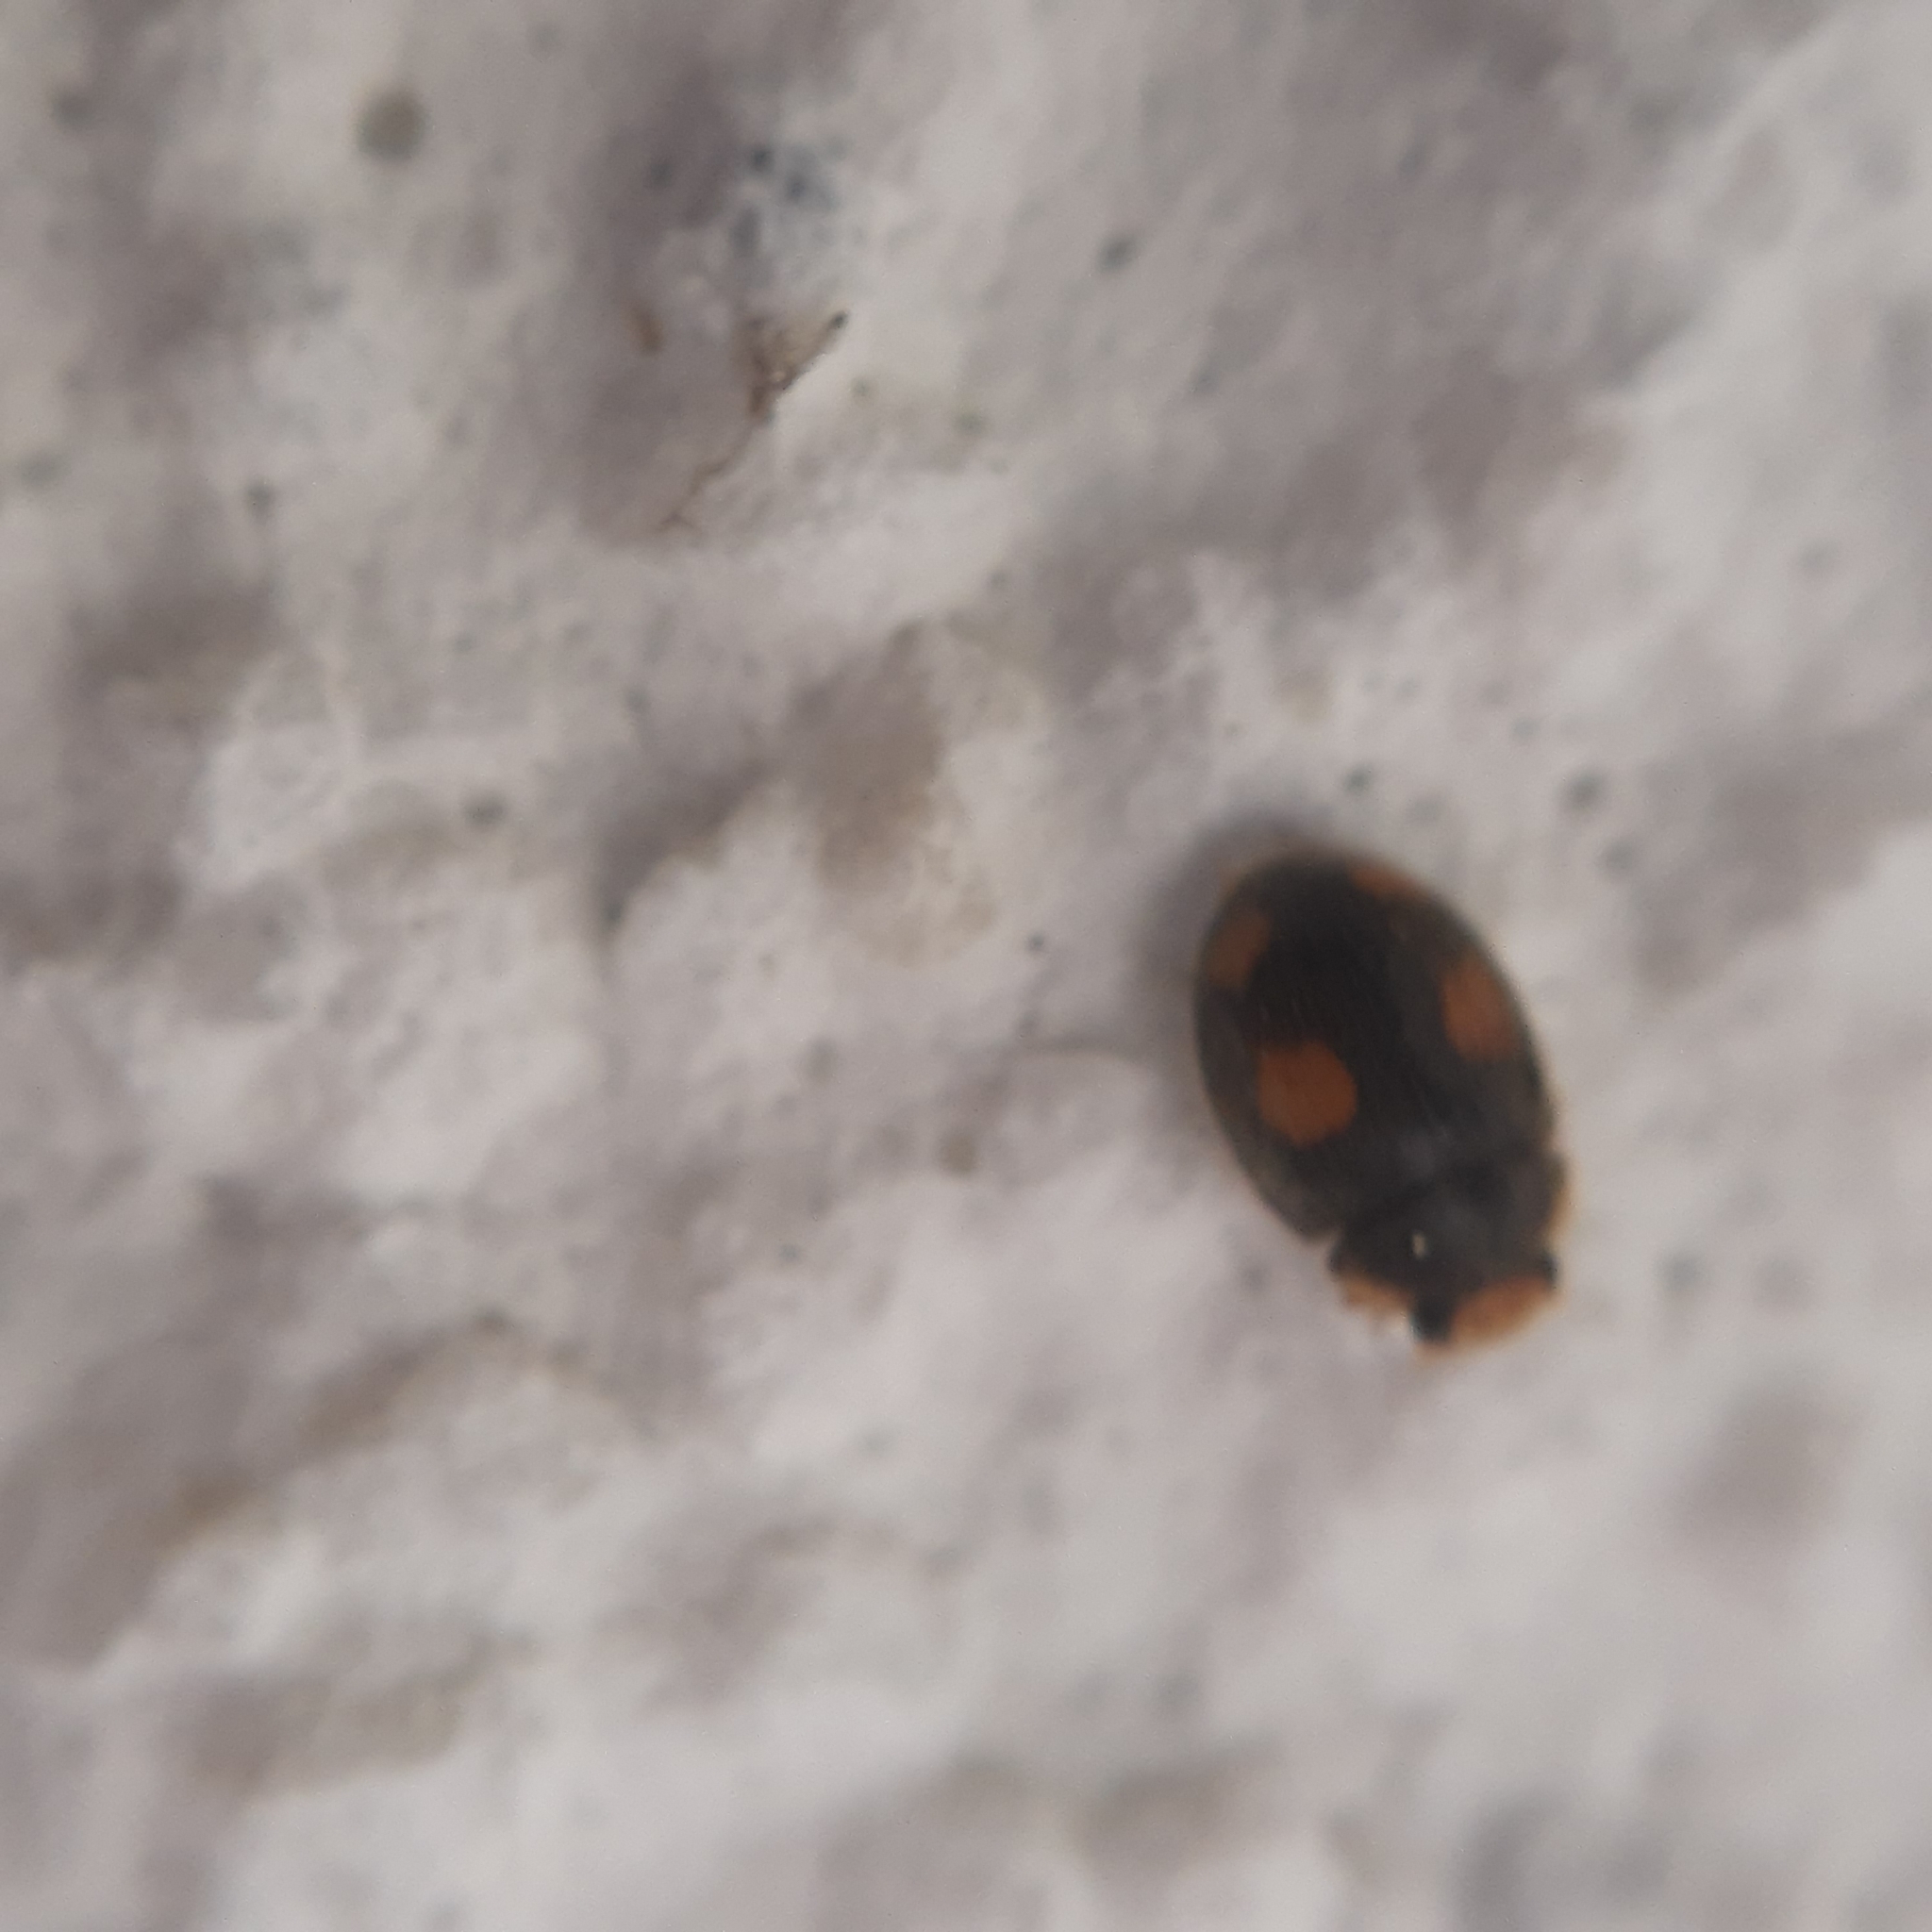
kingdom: Animalia
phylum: Arthropoda
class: Insecta
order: Coleoptera
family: Coccinellidae
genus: Platynaspis
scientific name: Platynaspis luteorubra
